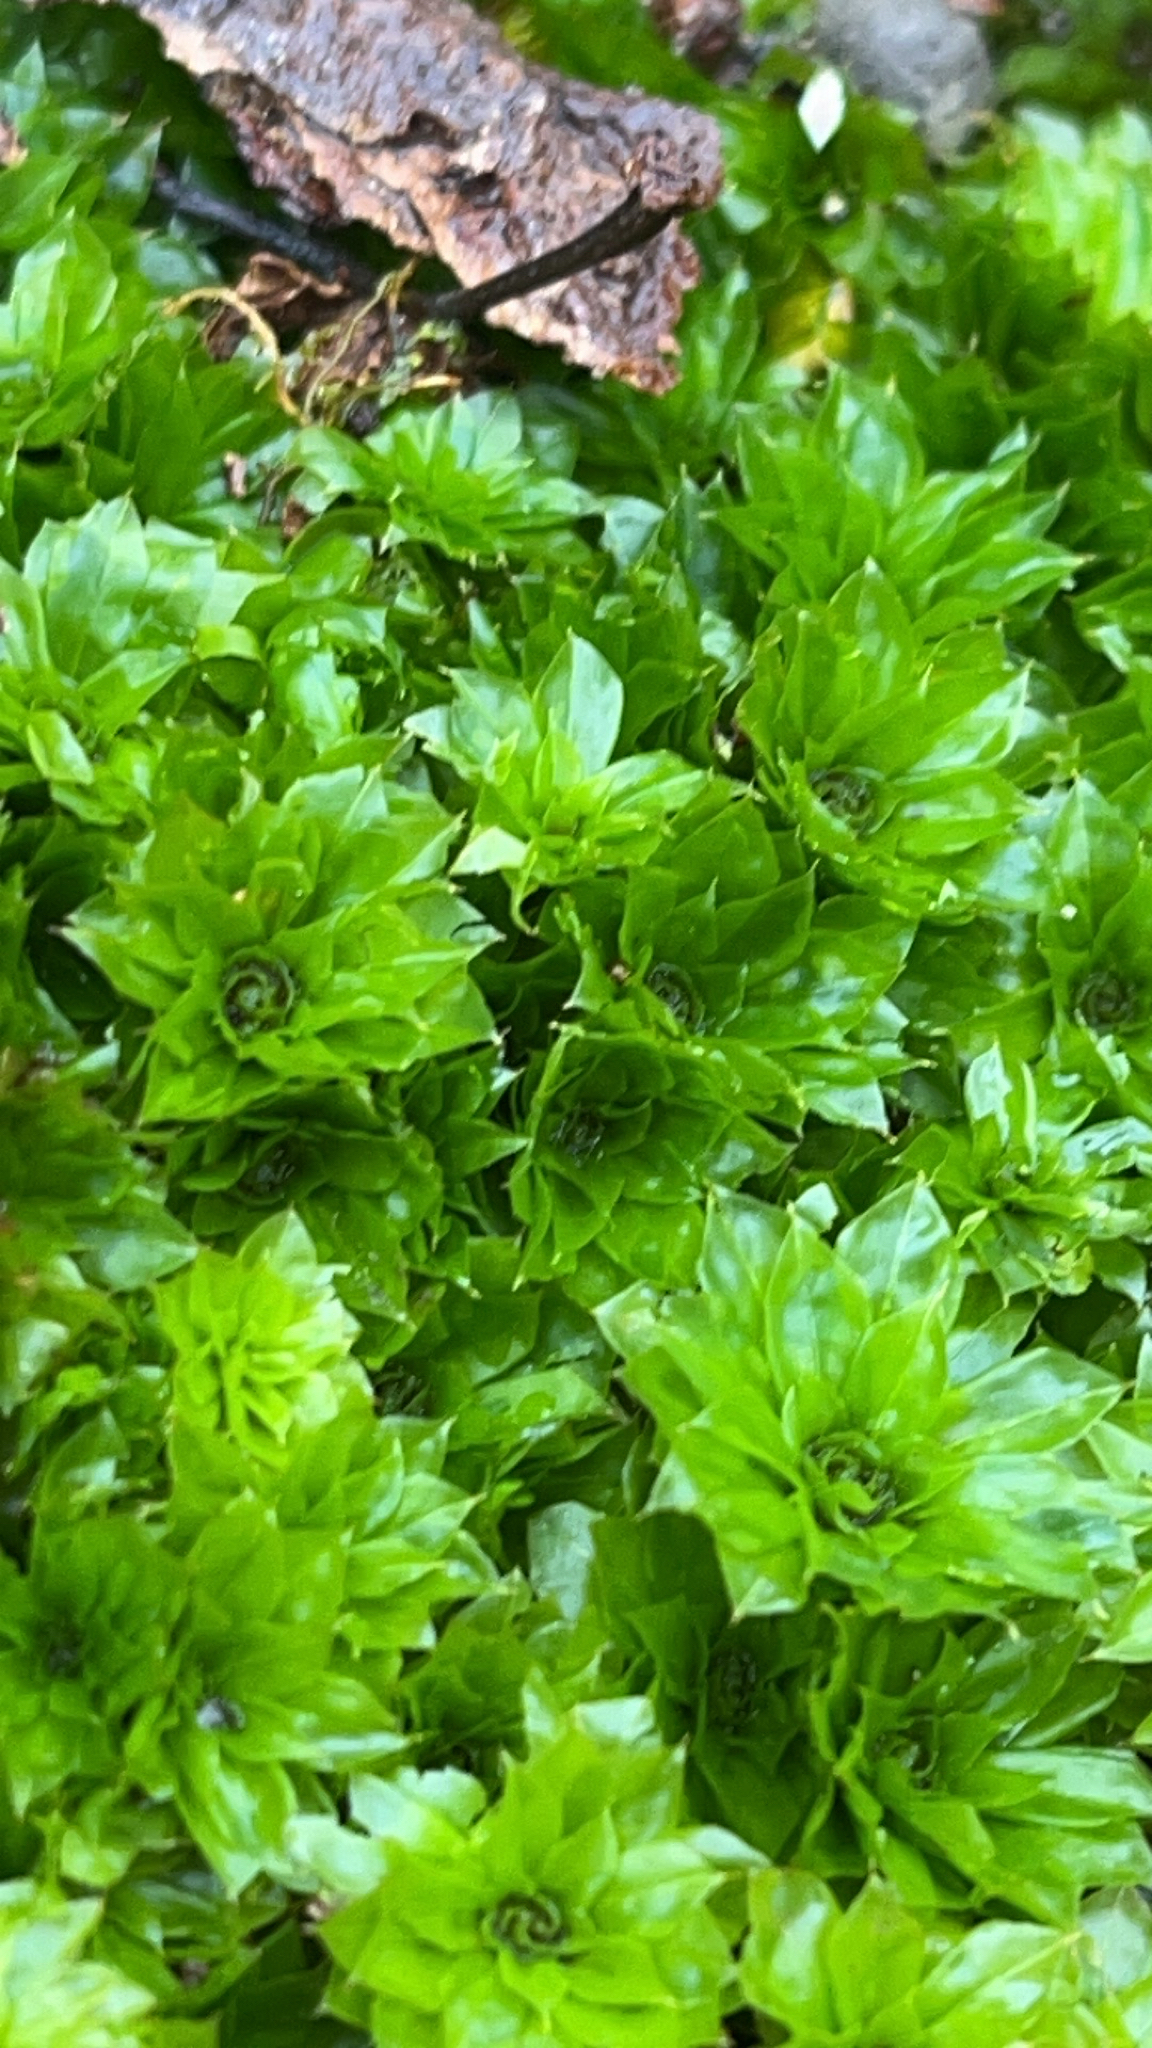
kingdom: Plantae
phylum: Bryophyta
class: Bryopsida
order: Bryales
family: Bryaceae
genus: Rhodobryum
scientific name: Rhodobryum ontariense
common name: Ontario rhodobryum moss
